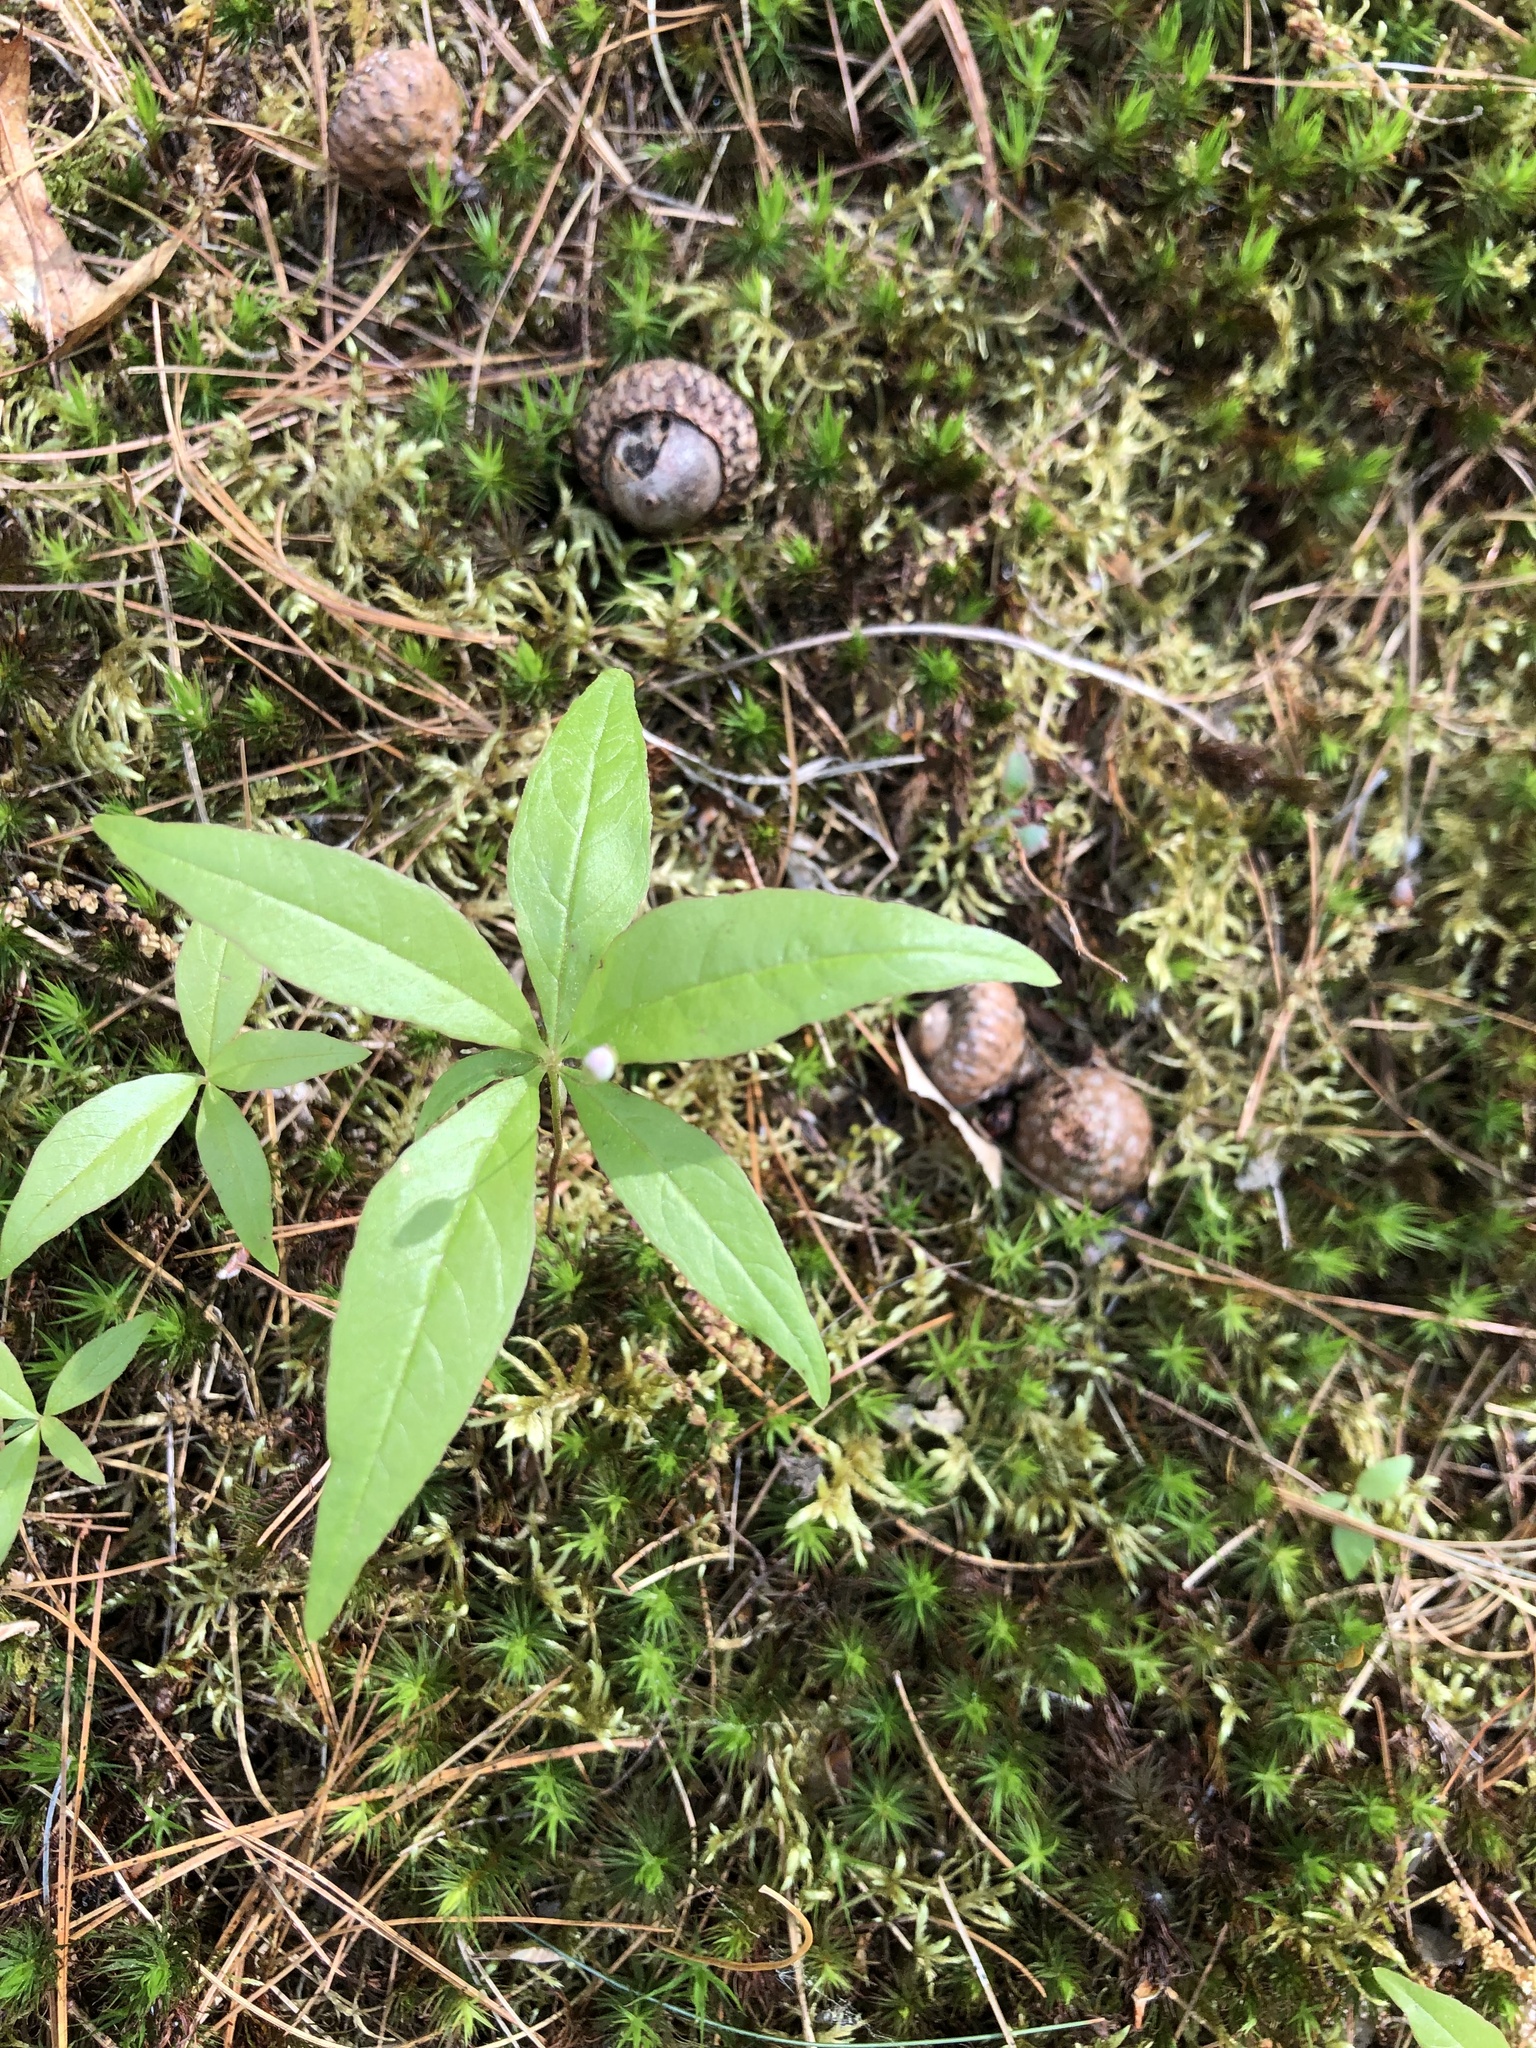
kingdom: Plantae
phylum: Tracheophyta
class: Magnoliopsida
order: Ericales
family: Primulaceae
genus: Lysimachia
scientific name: Lysimachia borealis
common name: American starflower
